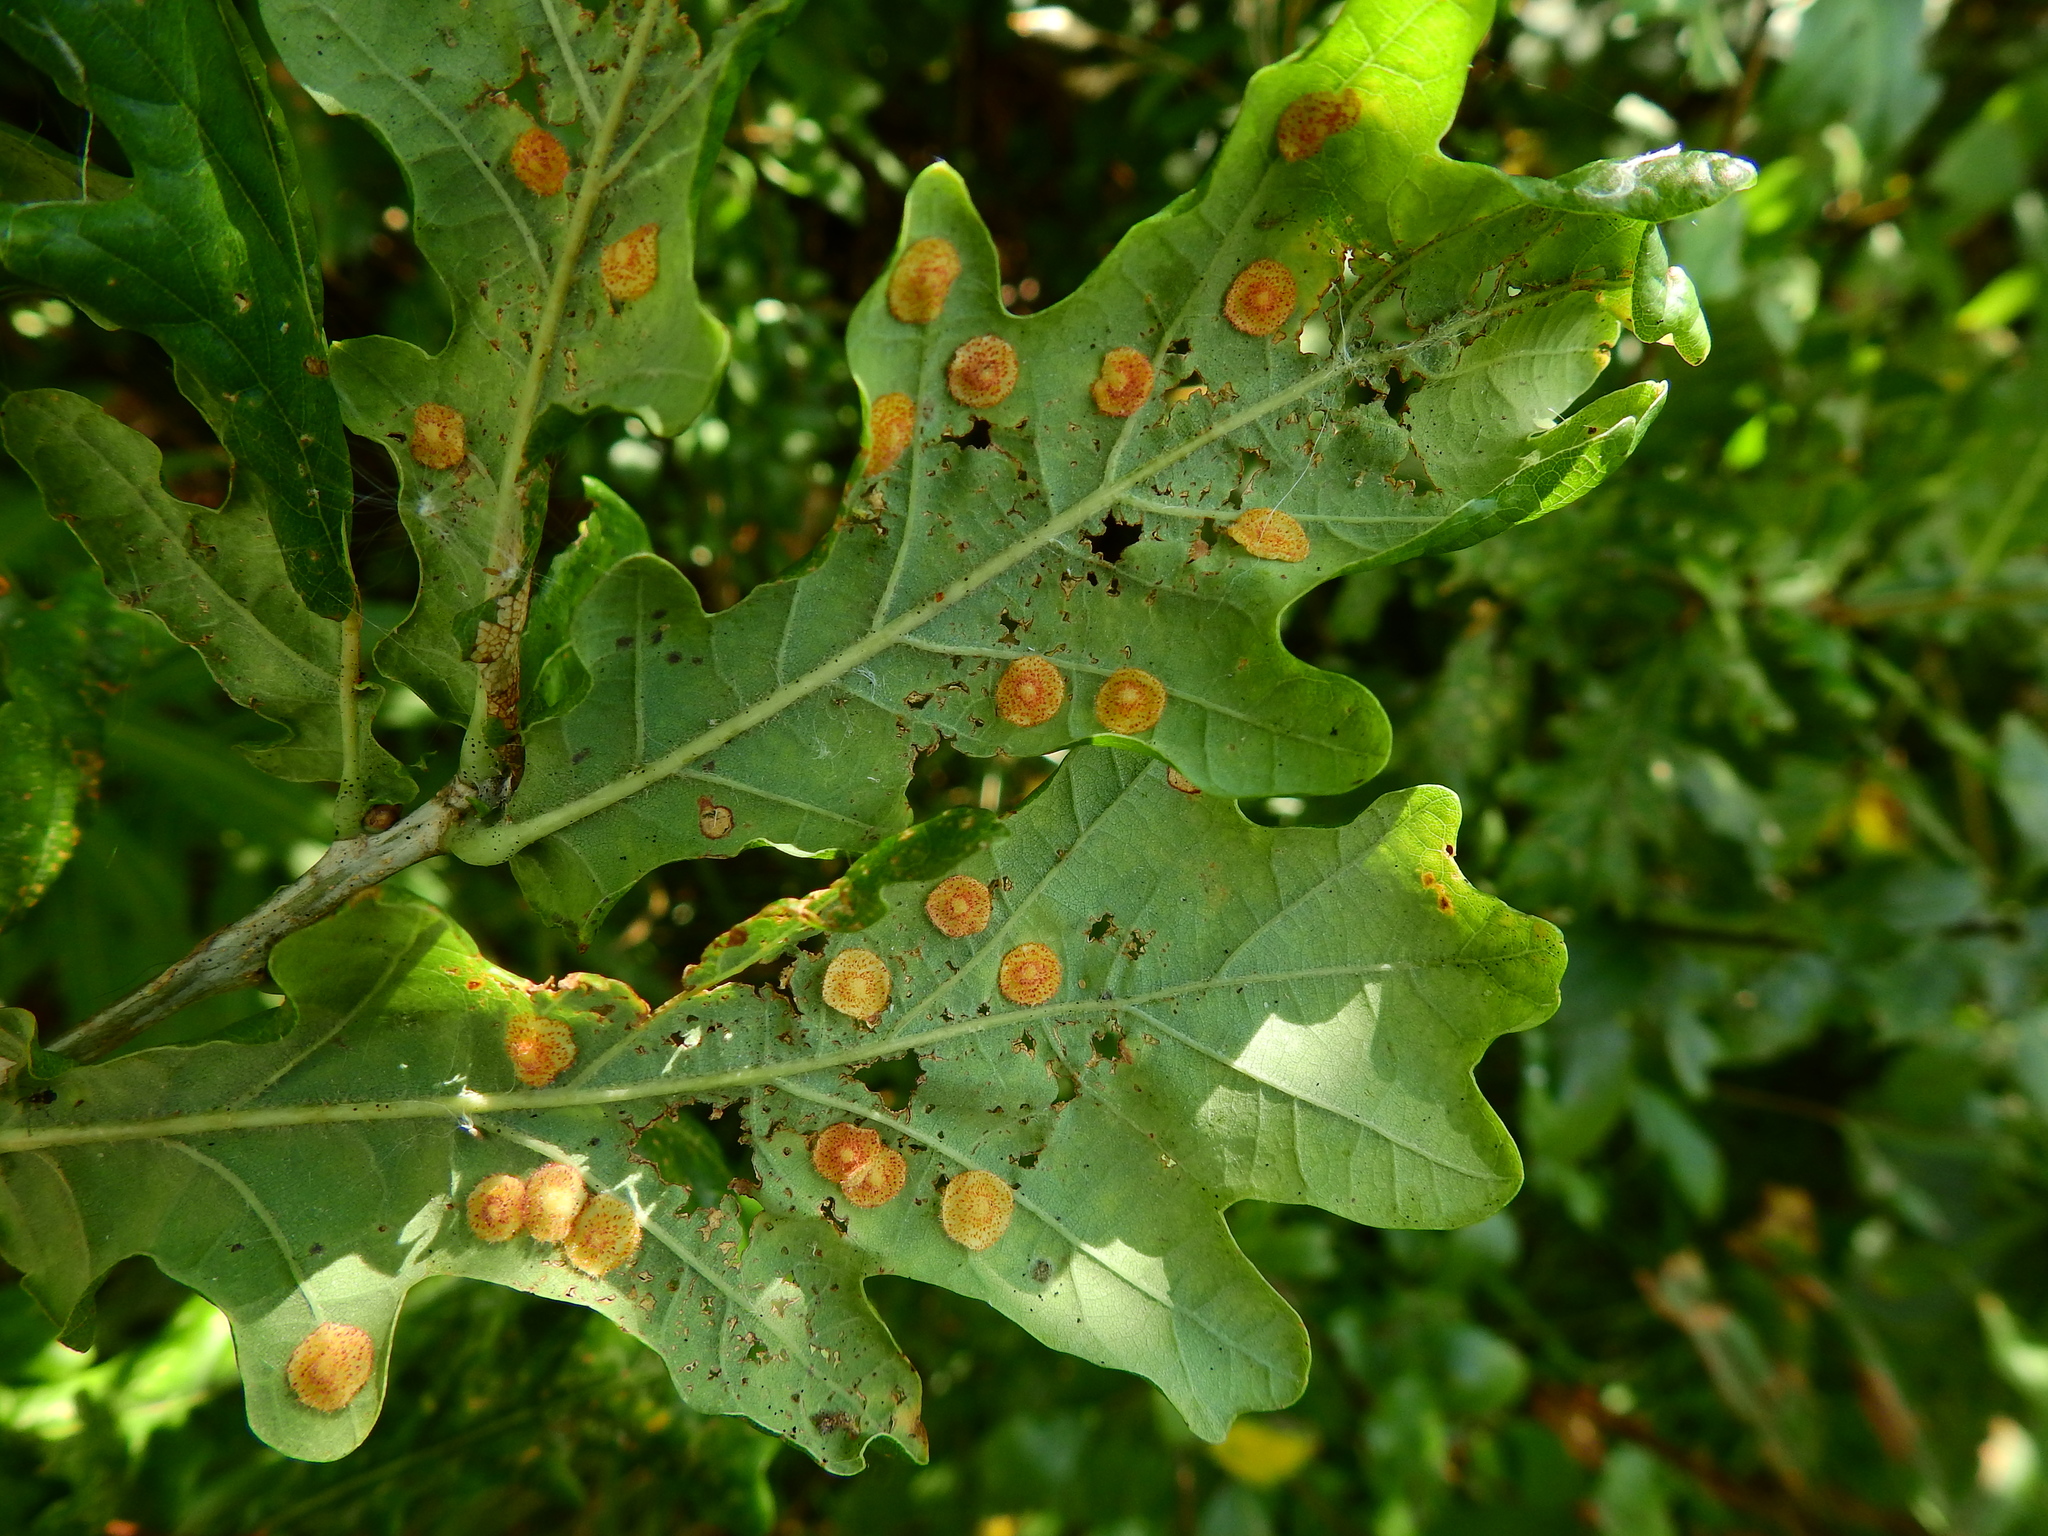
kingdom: Animalia
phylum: Arthropoda
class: Insecta
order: Hymenoptera
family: Cynipidae
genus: Neuroterus
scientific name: Neuroterus quercusbaccarum
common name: Common spangle gall
